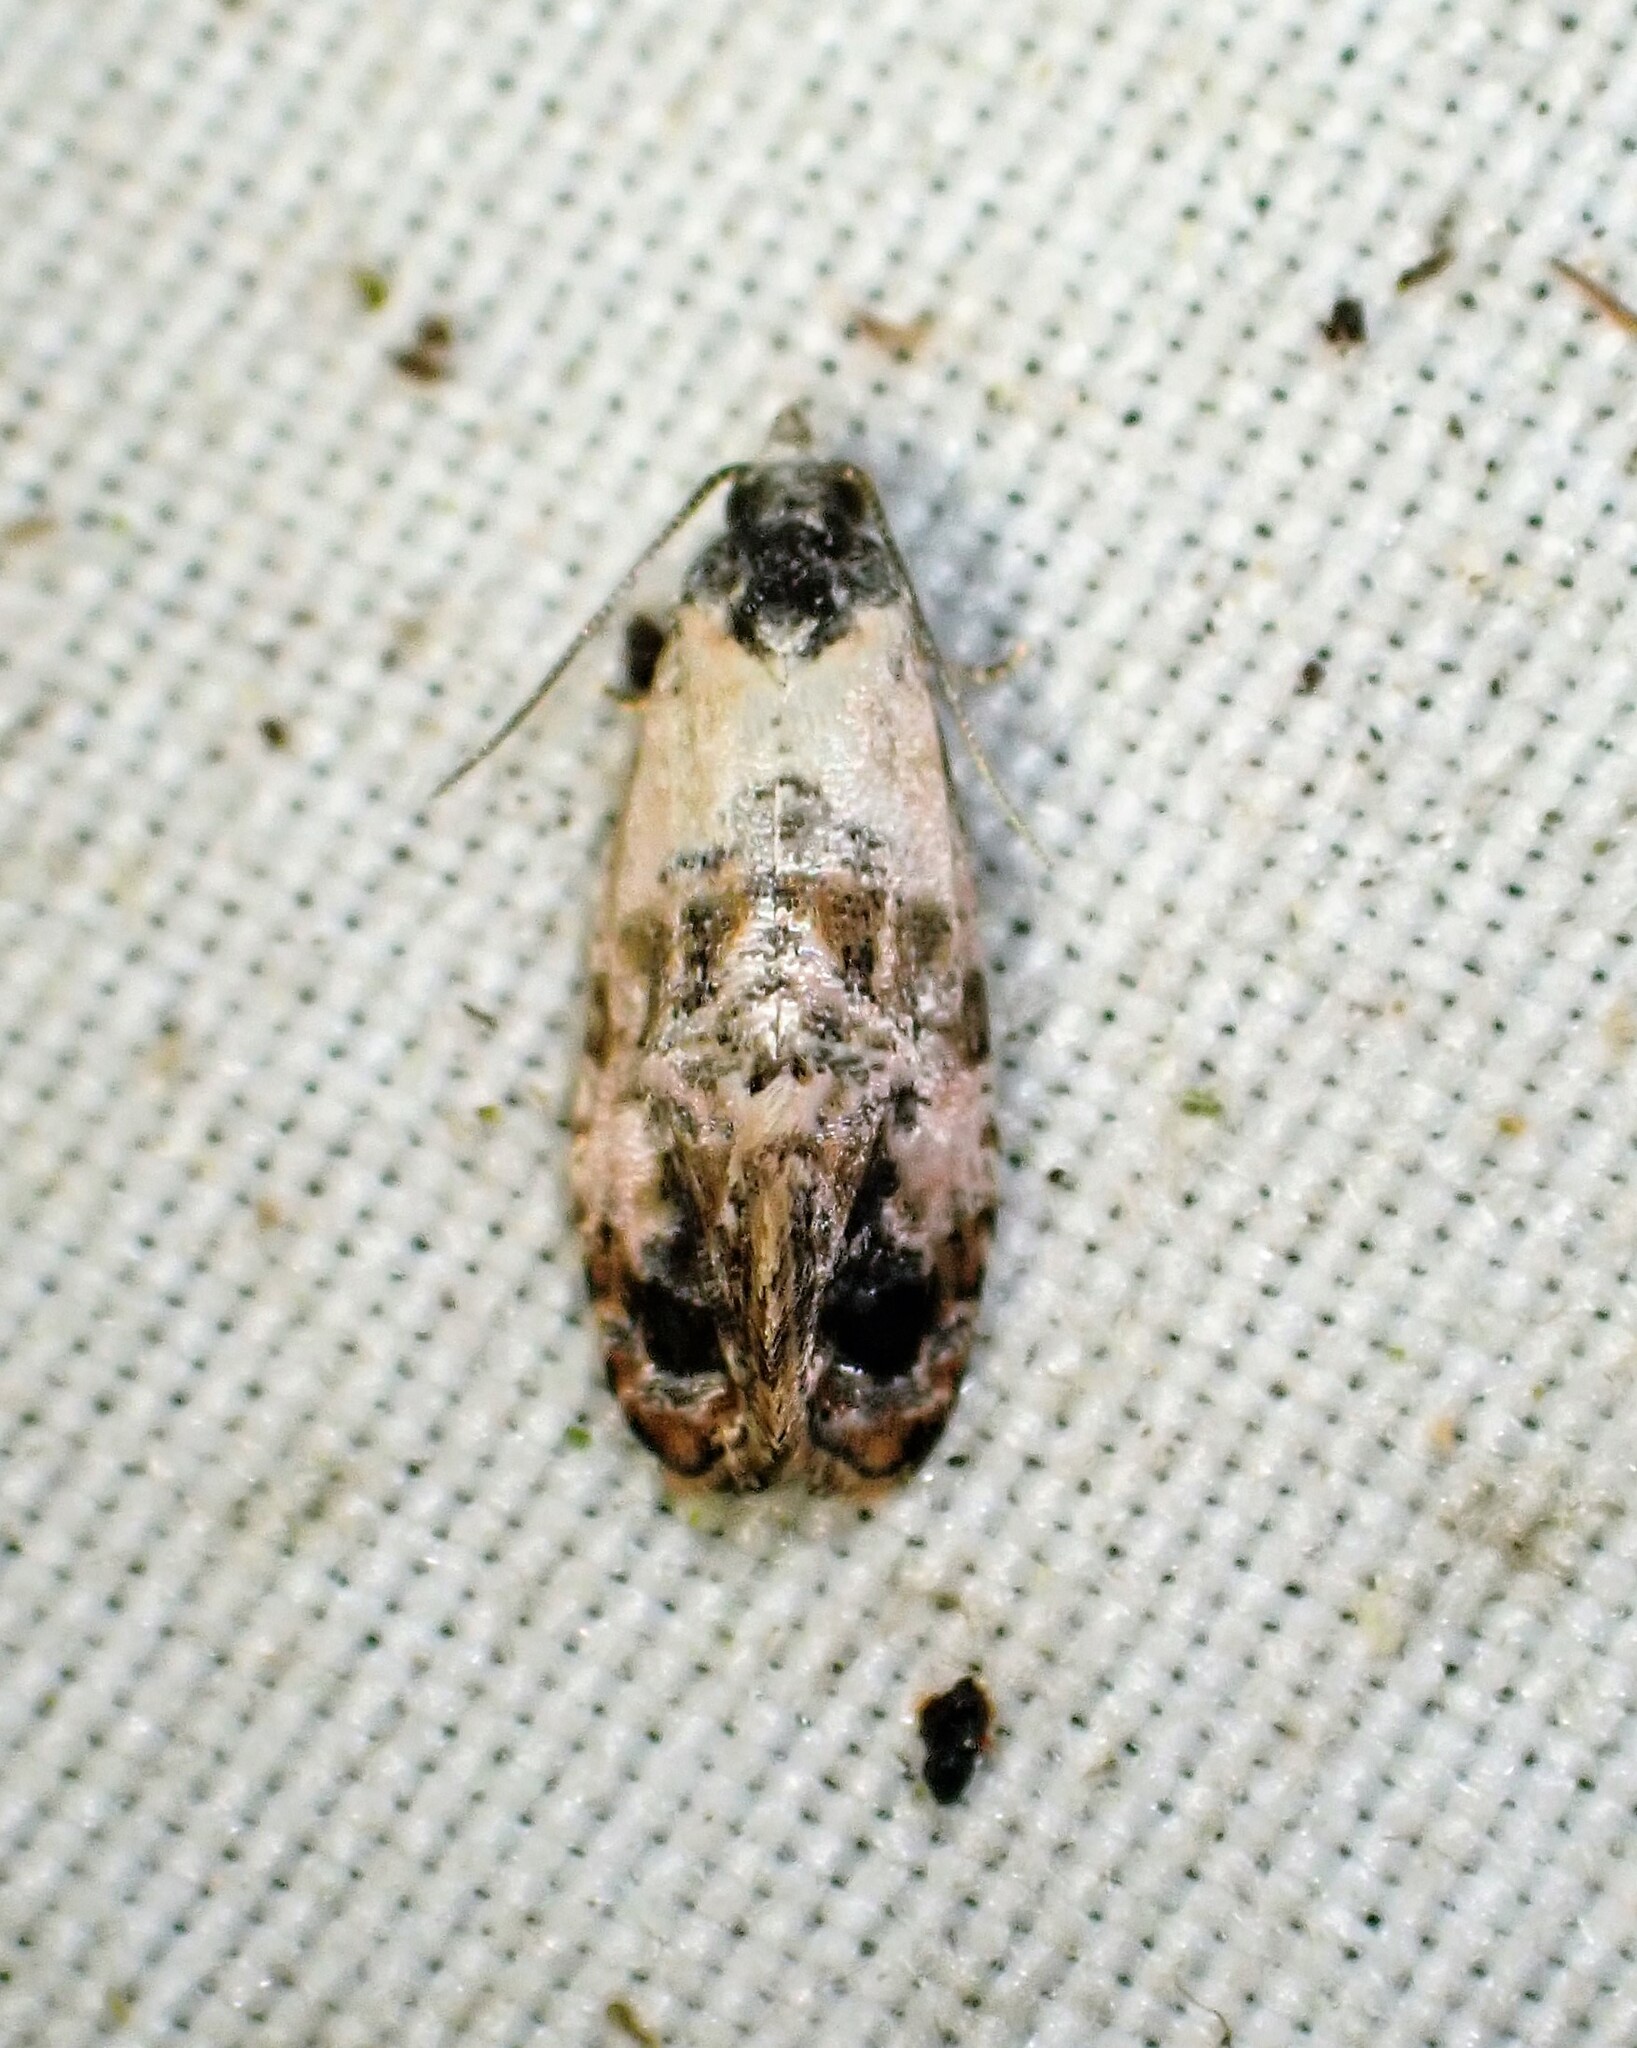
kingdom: Animalia
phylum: Arthropoda
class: Insecta
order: Lepidoptera
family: Tortricidae
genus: Cochylis
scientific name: Cochylis Cochylichroa hoffmanana
